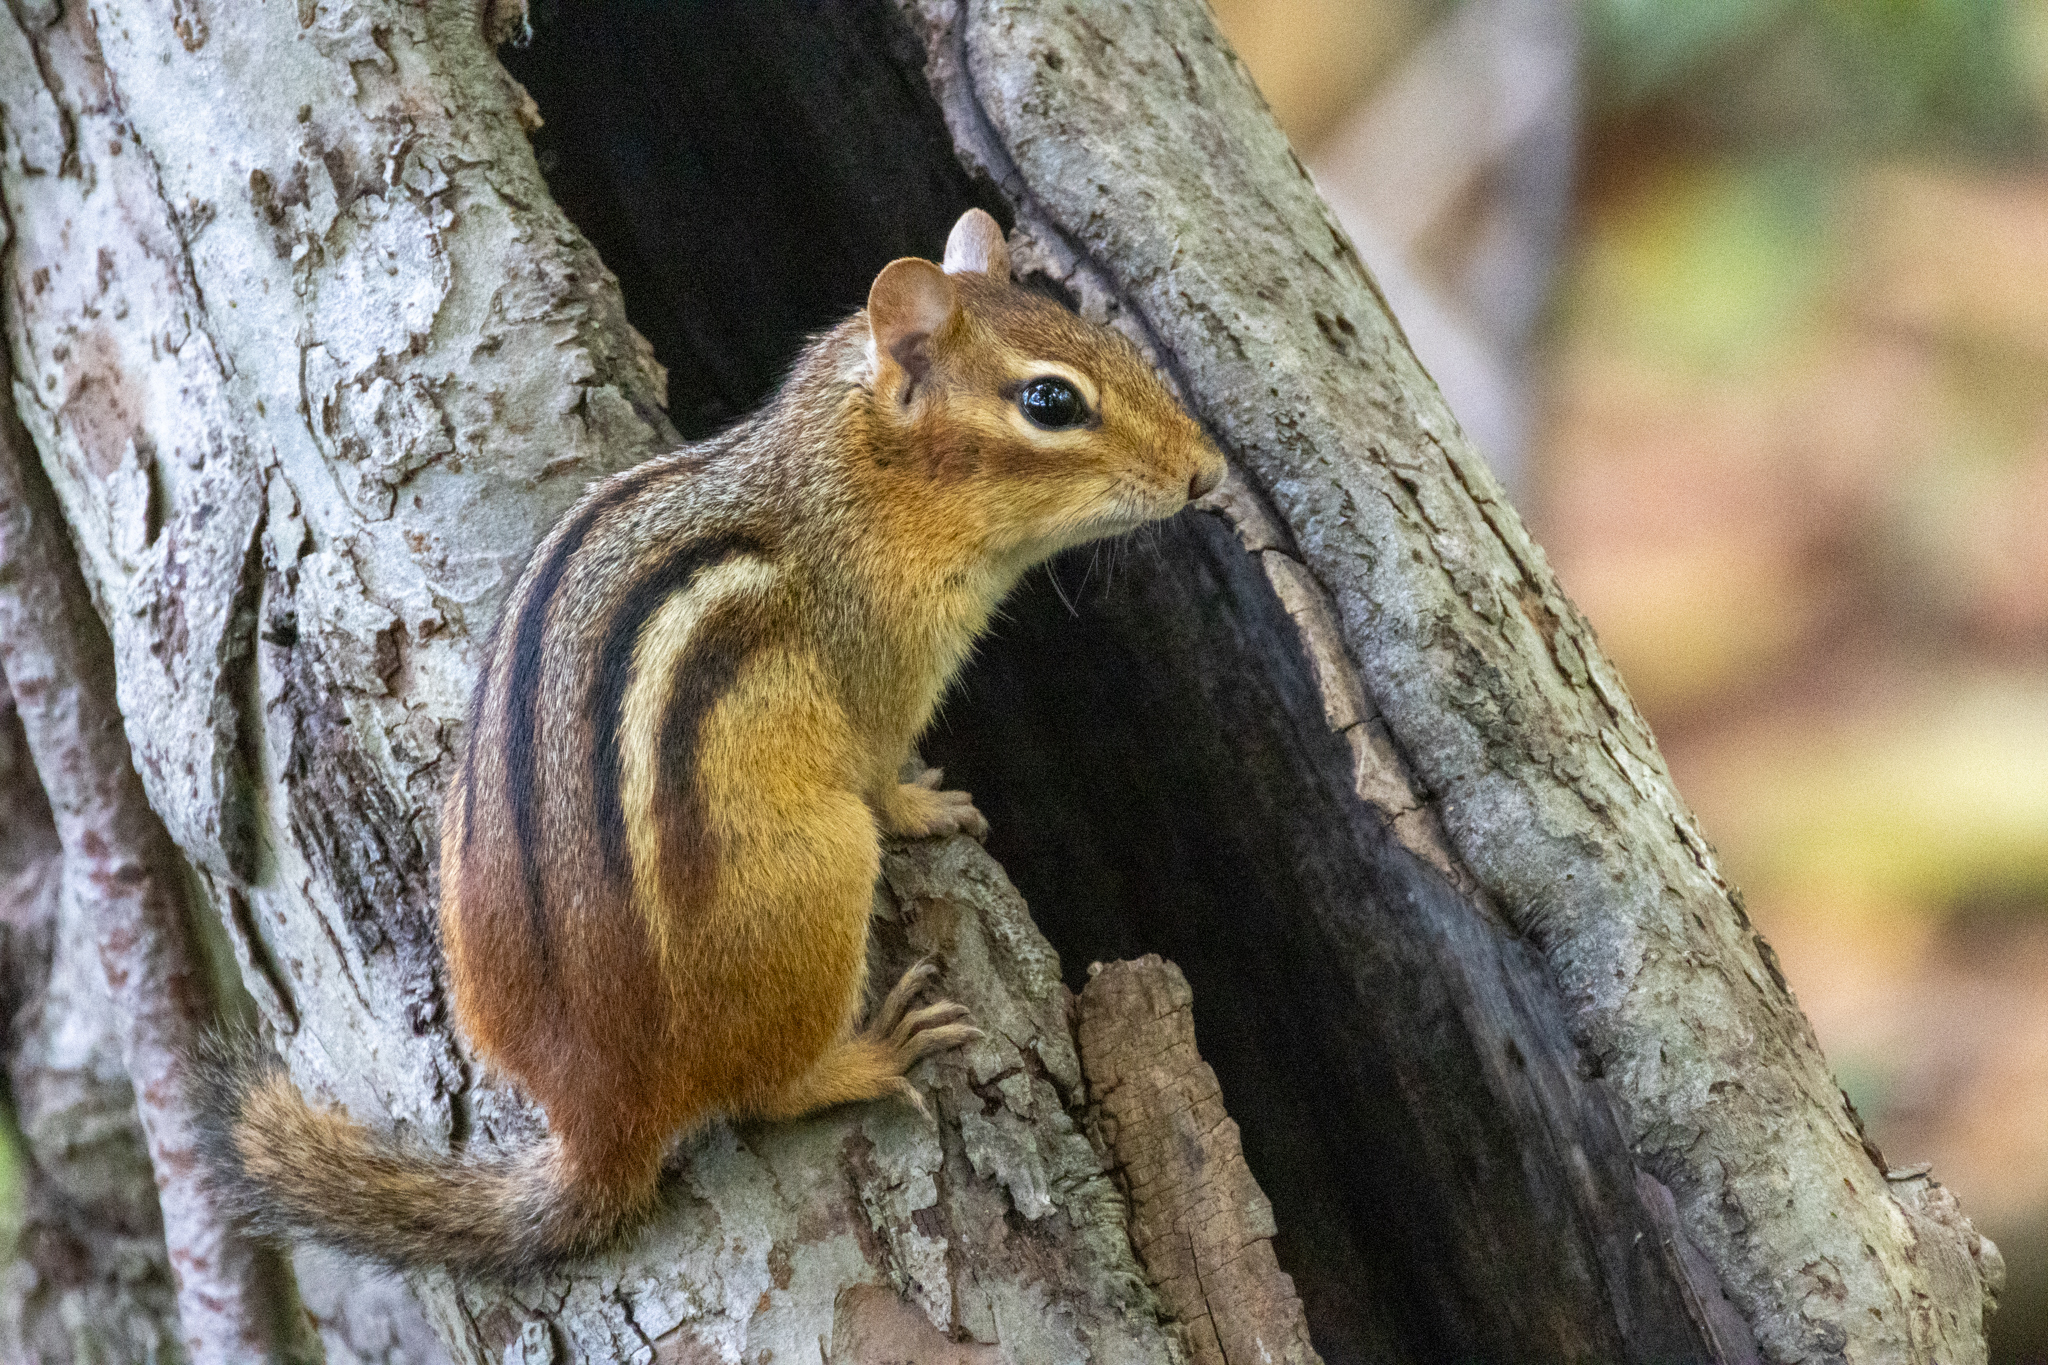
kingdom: Animalia
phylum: Chordata
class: Mammalia
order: Rodentia
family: Sciuridae
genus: Tamias
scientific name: Tamias striatus
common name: Eastern chipmunk
